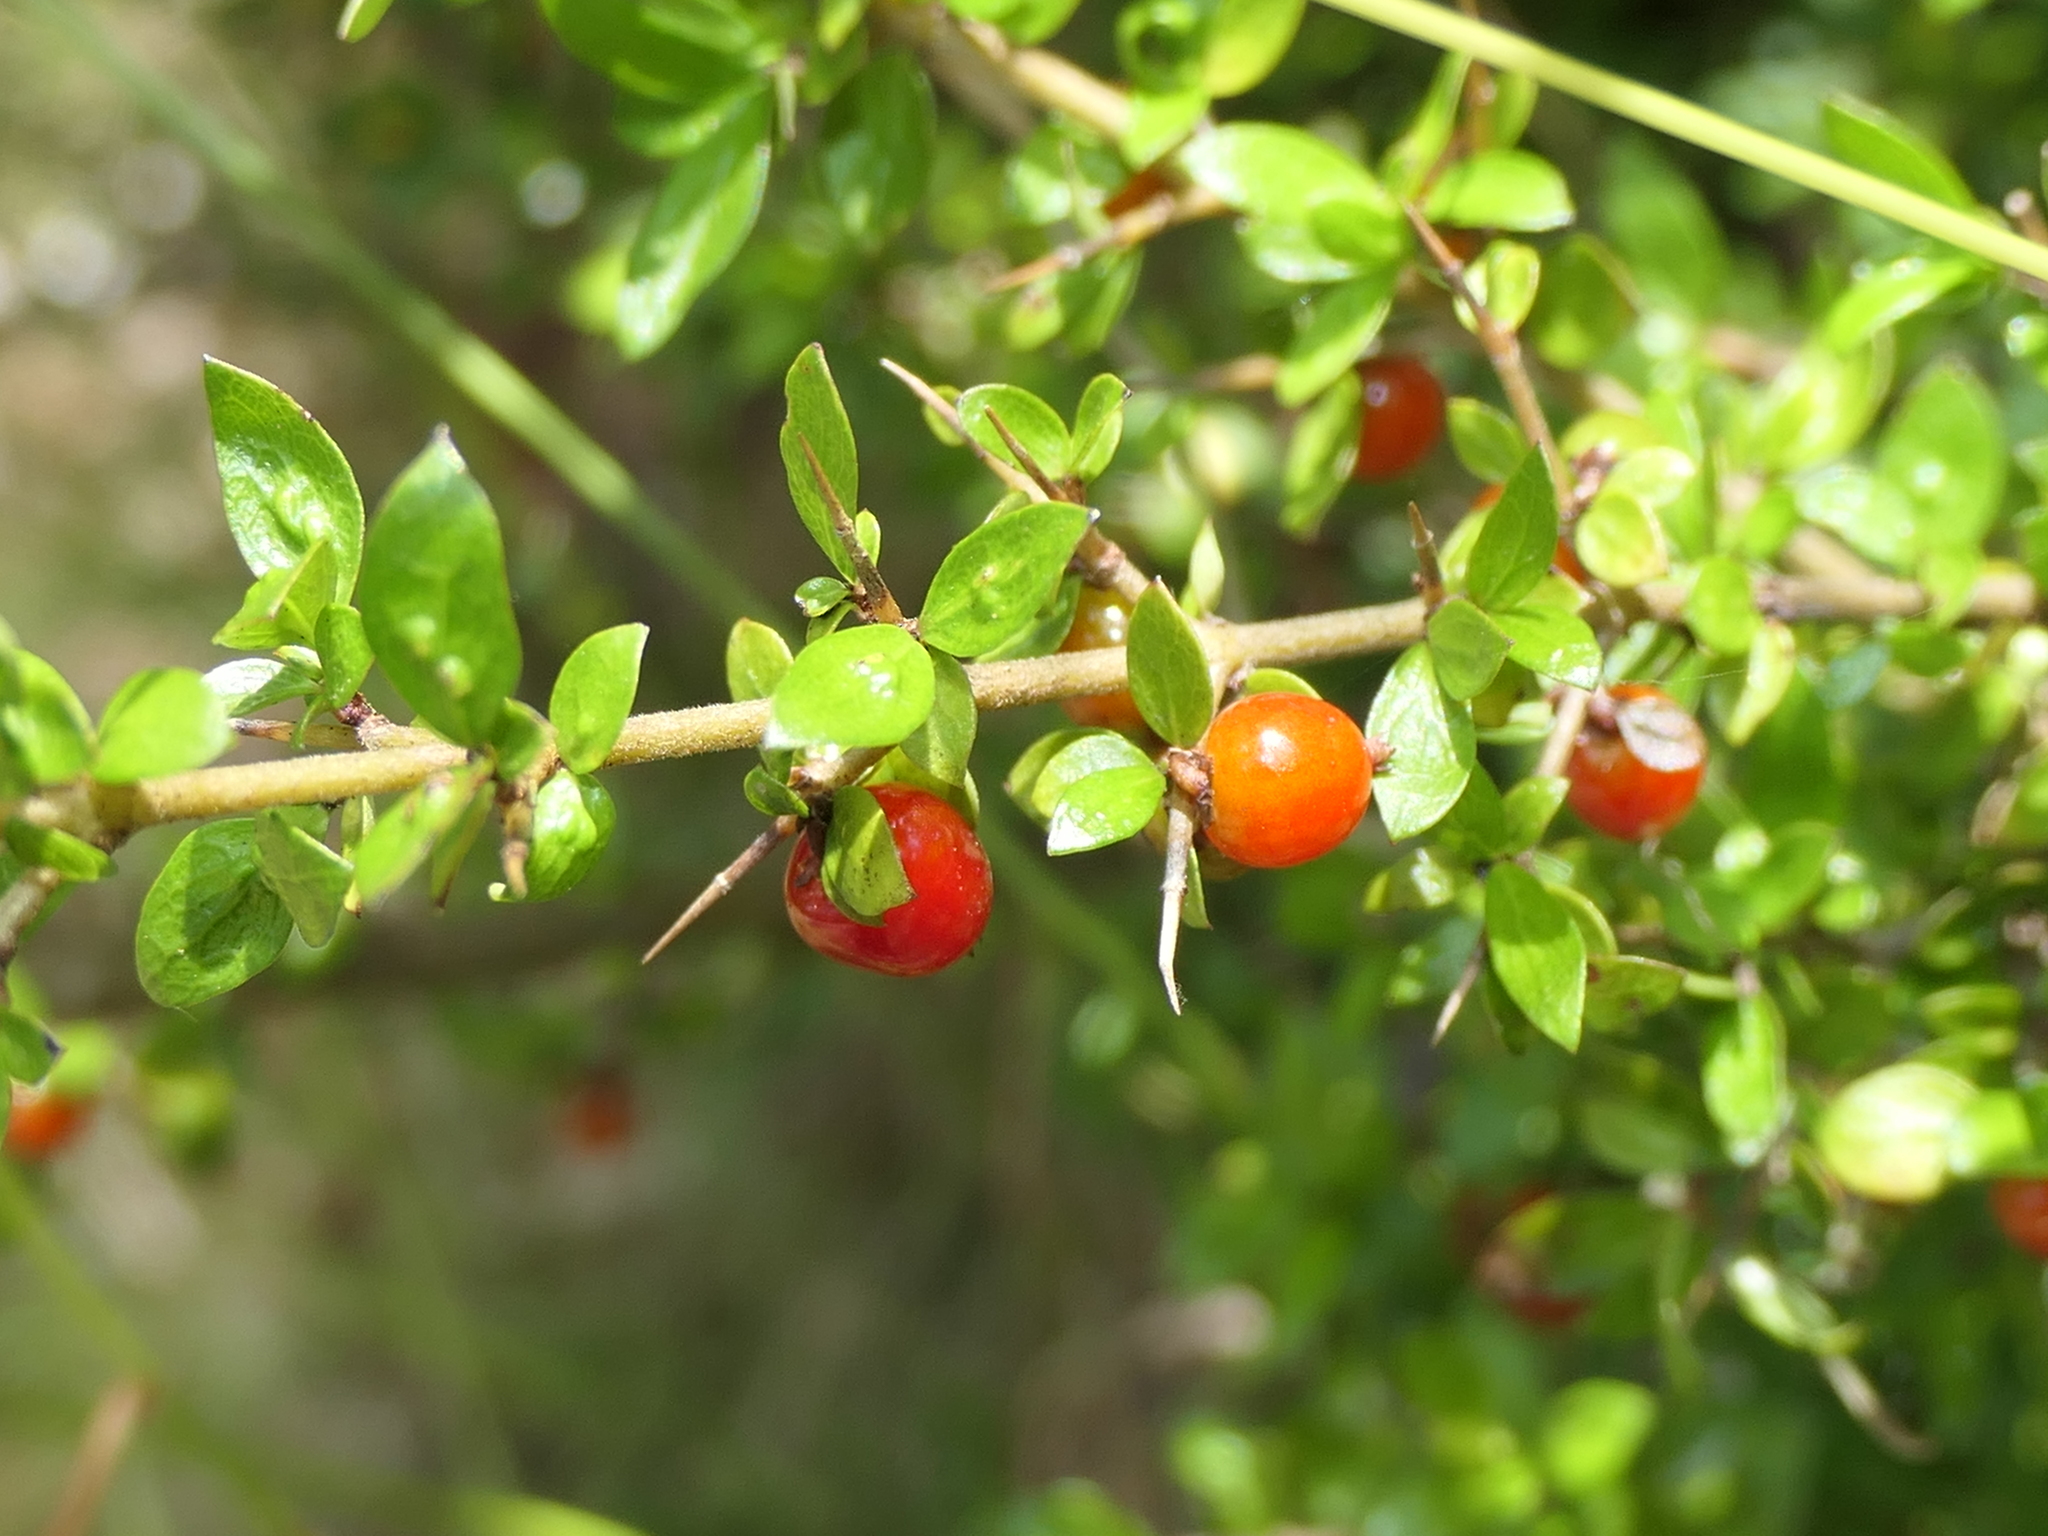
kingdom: Plantae
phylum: Tracheophyta
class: Magnoliopsida
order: Gentianales
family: Rubiaceae
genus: Coprosma
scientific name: Coprosma quadrifida
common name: Prickly currantbush
